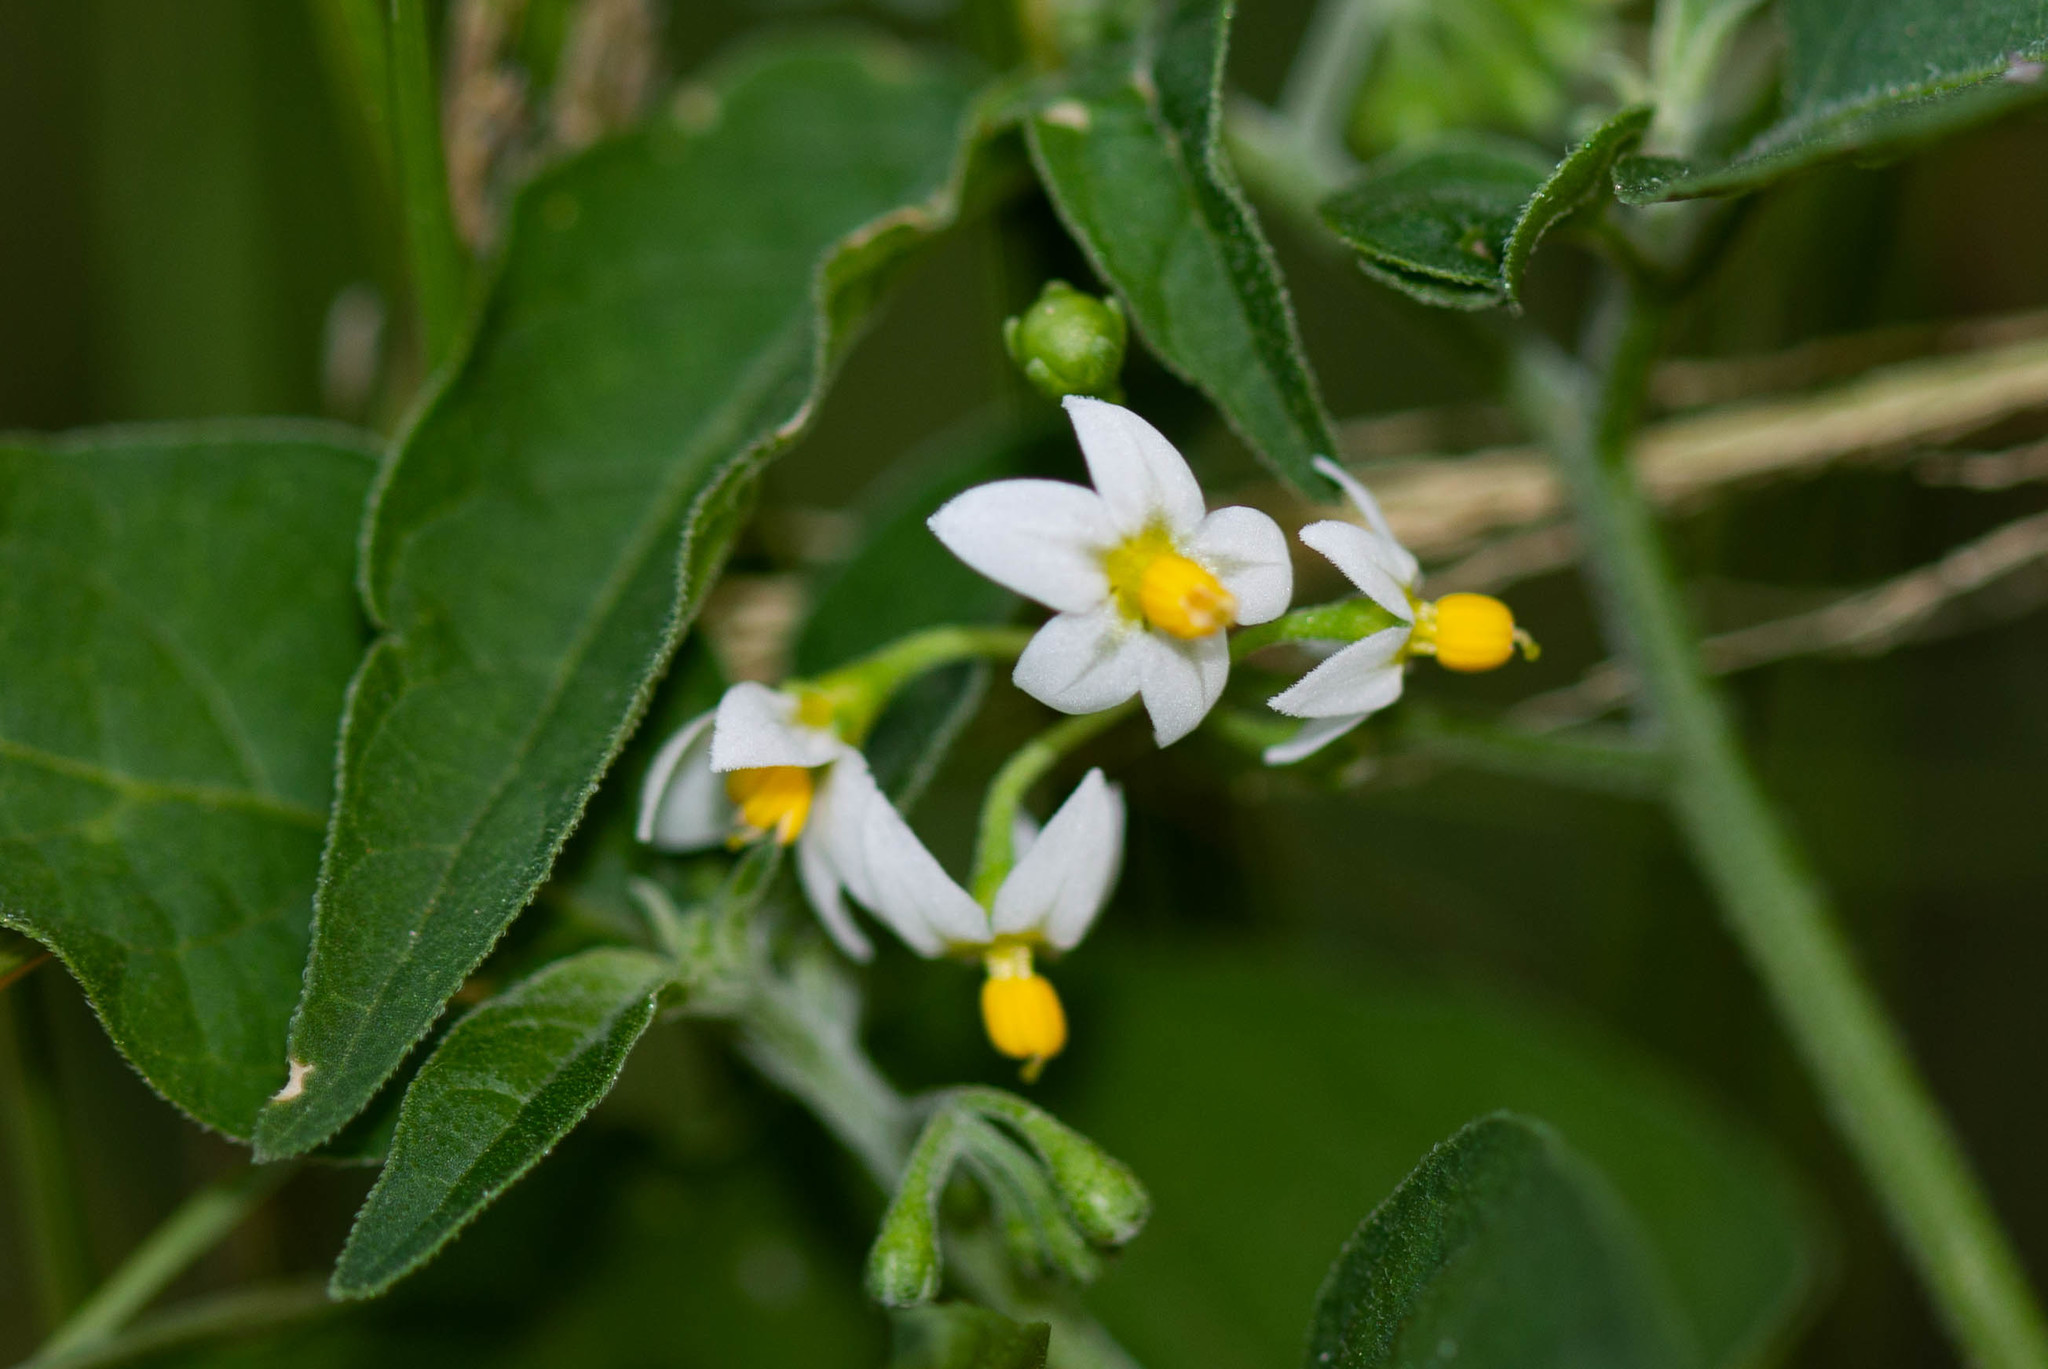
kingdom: Plantae
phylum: Tracheophyta
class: Magnoliopsida
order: Solanales
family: Solanaceae
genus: Solanum
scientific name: Solanum americanum
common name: American black nightshade
